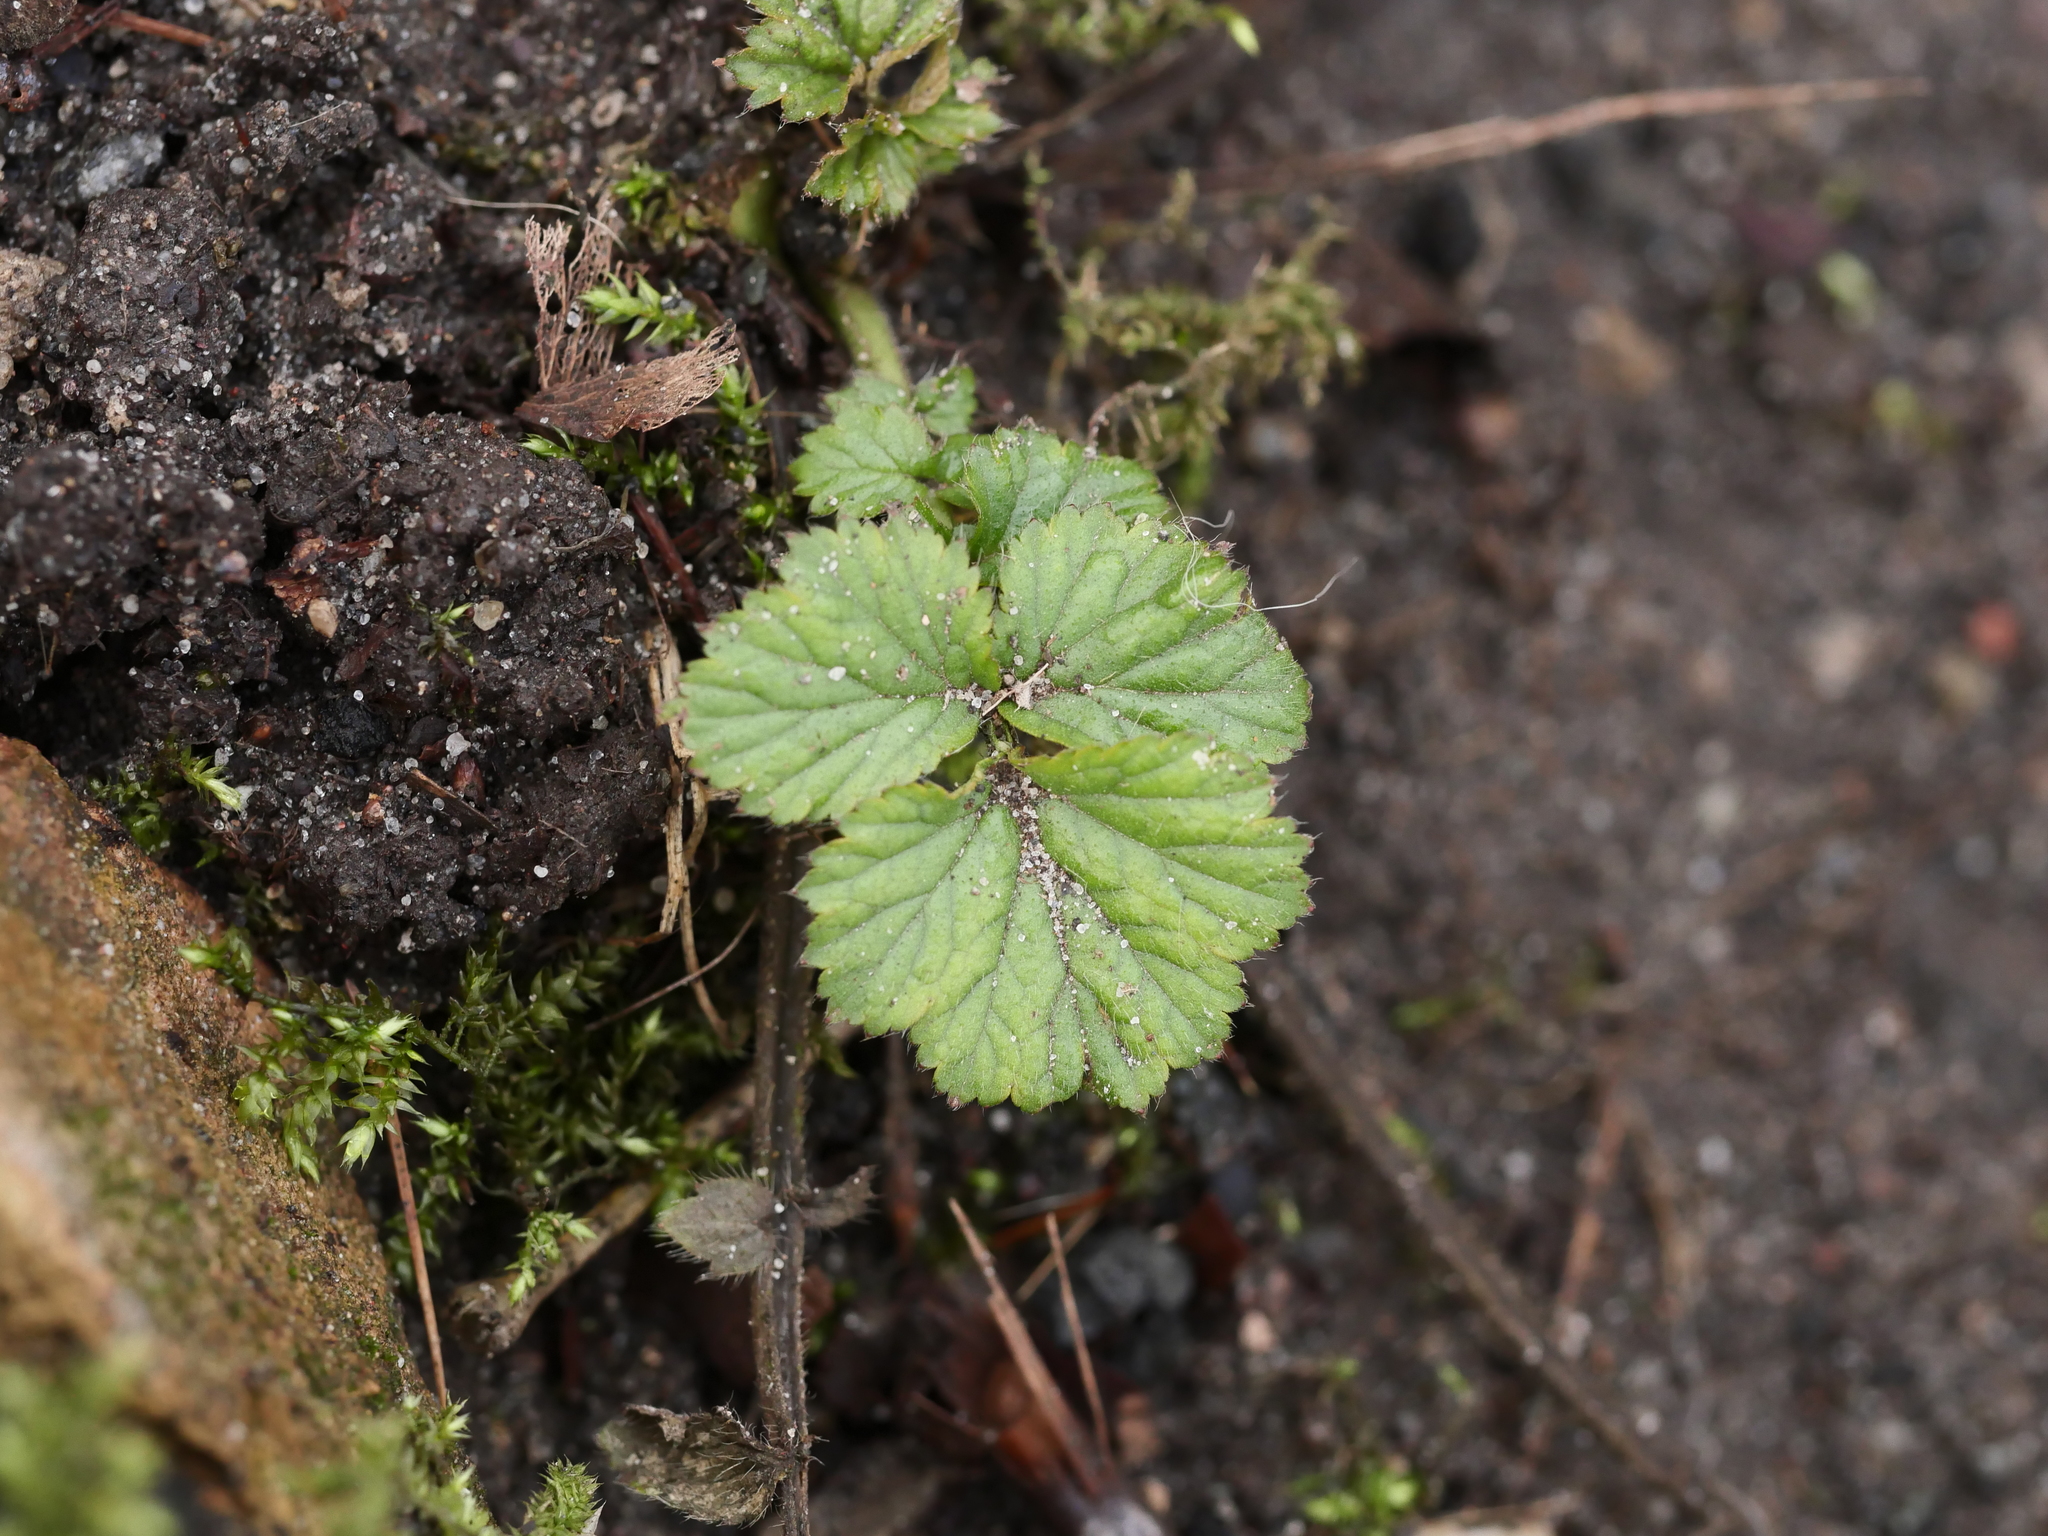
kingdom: Plantae
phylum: Tracheophyta
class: Magnoliopsida
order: Rosales
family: Rosaceae
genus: Geum
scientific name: Geum urbanum
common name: Wood avens
